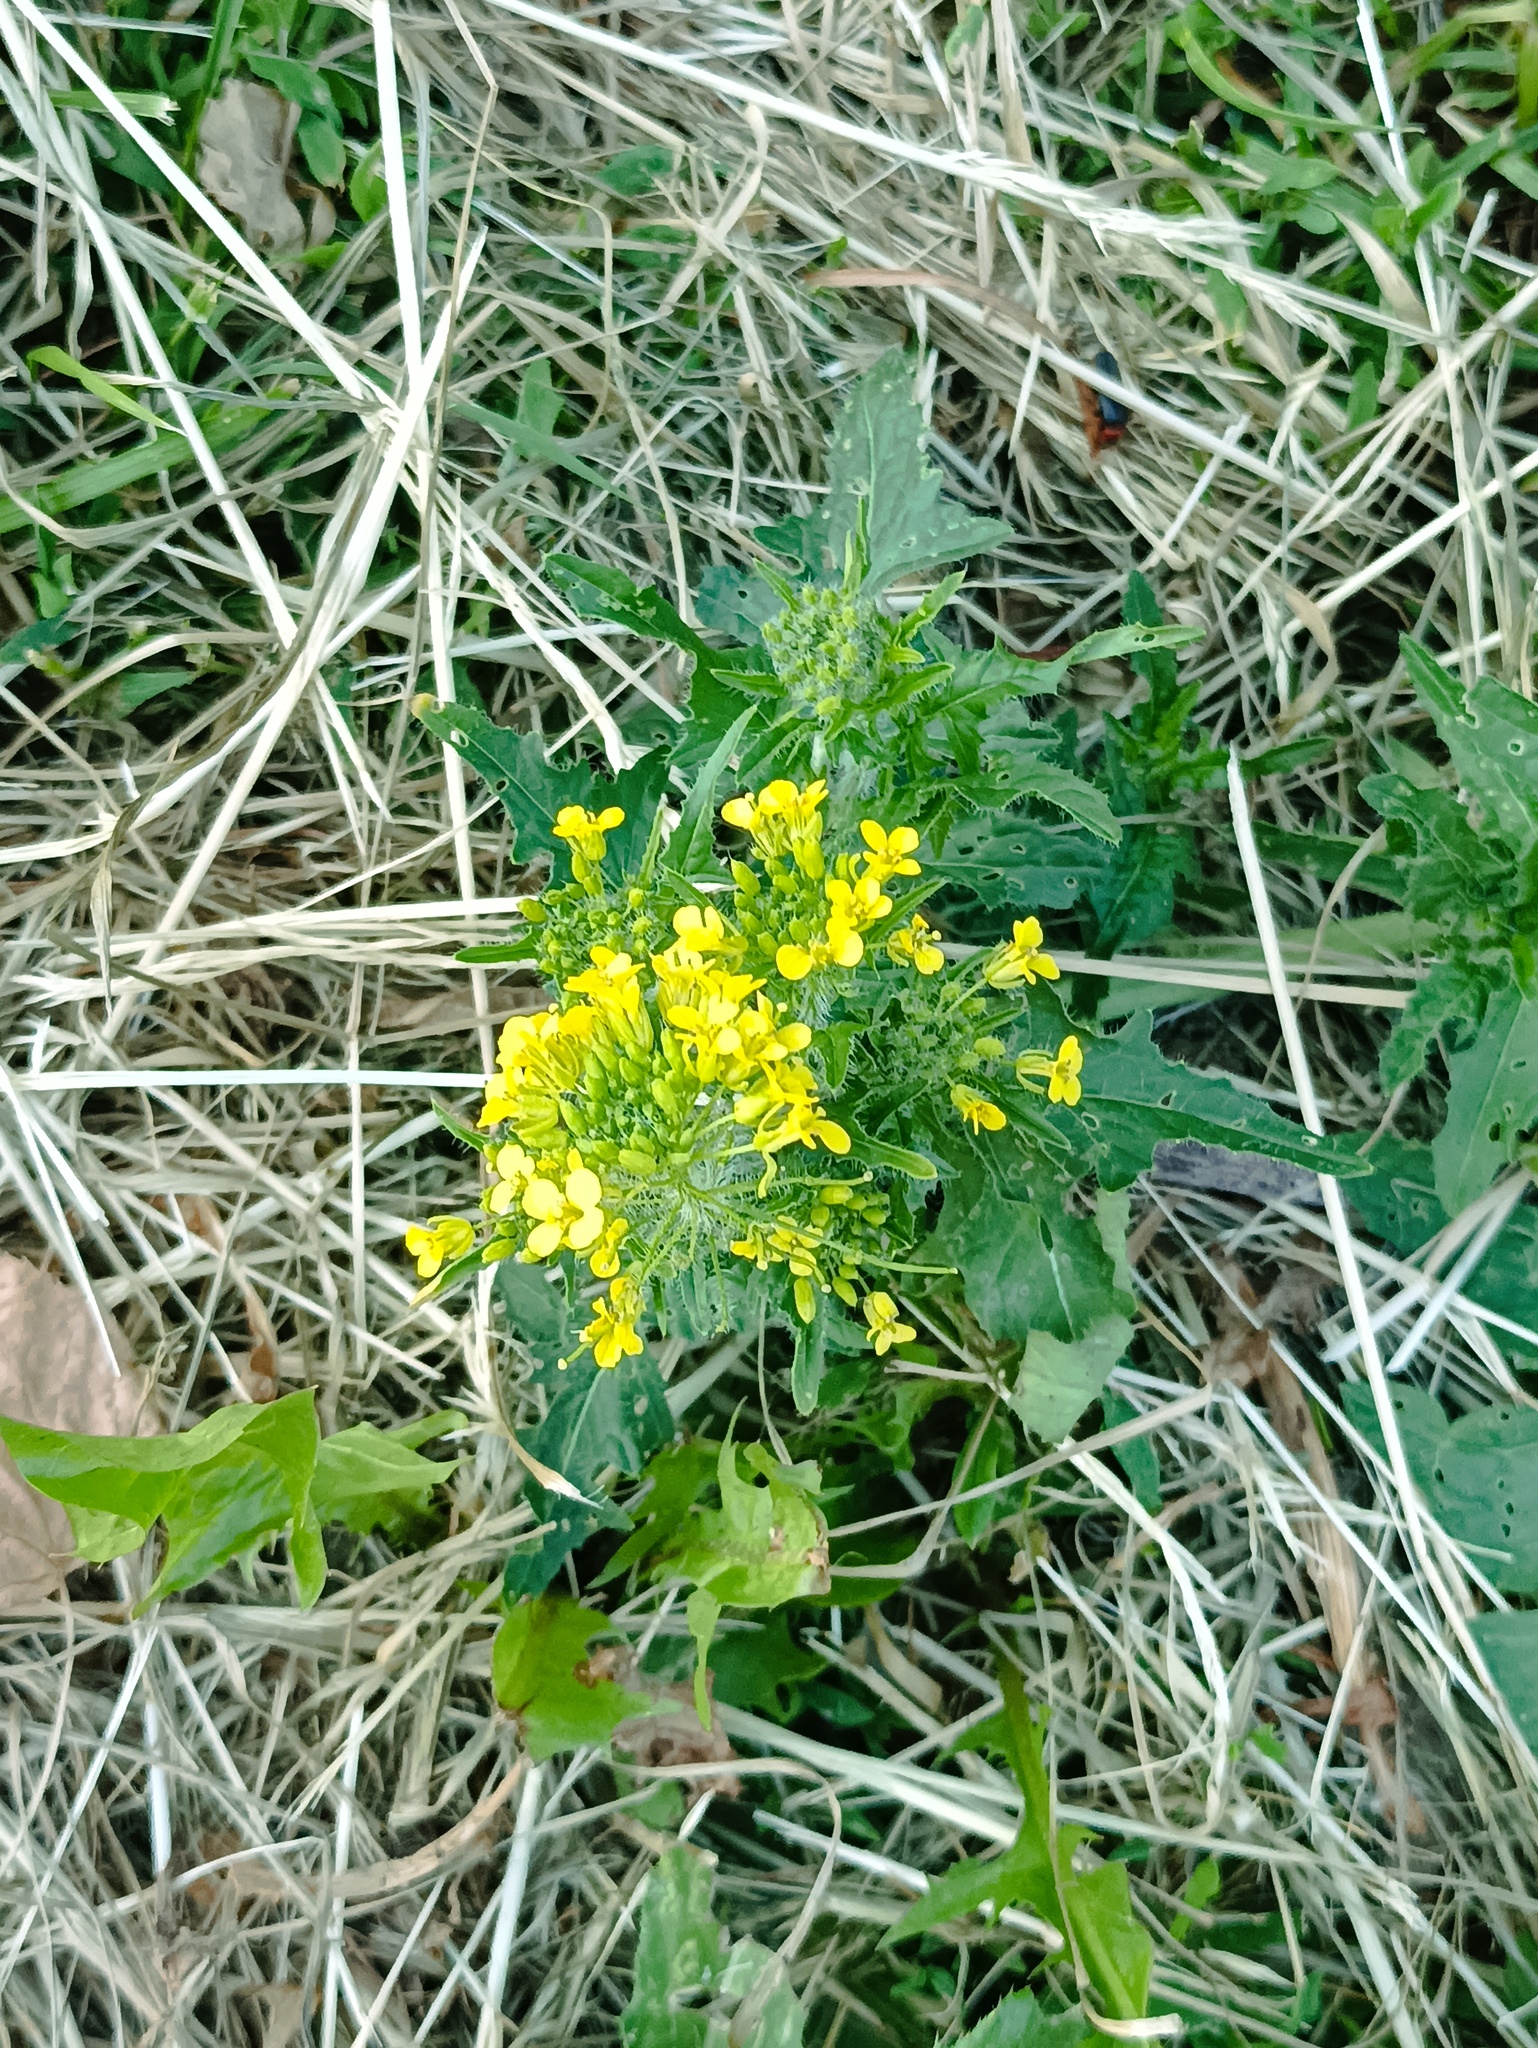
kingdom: Plantae
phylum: Tracheophyta
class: Magnoliopsida
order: Brassicales
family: Brassicaceae
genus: Sisymbrium
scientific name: Sisymbrium loeselii
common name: False london-rocket
